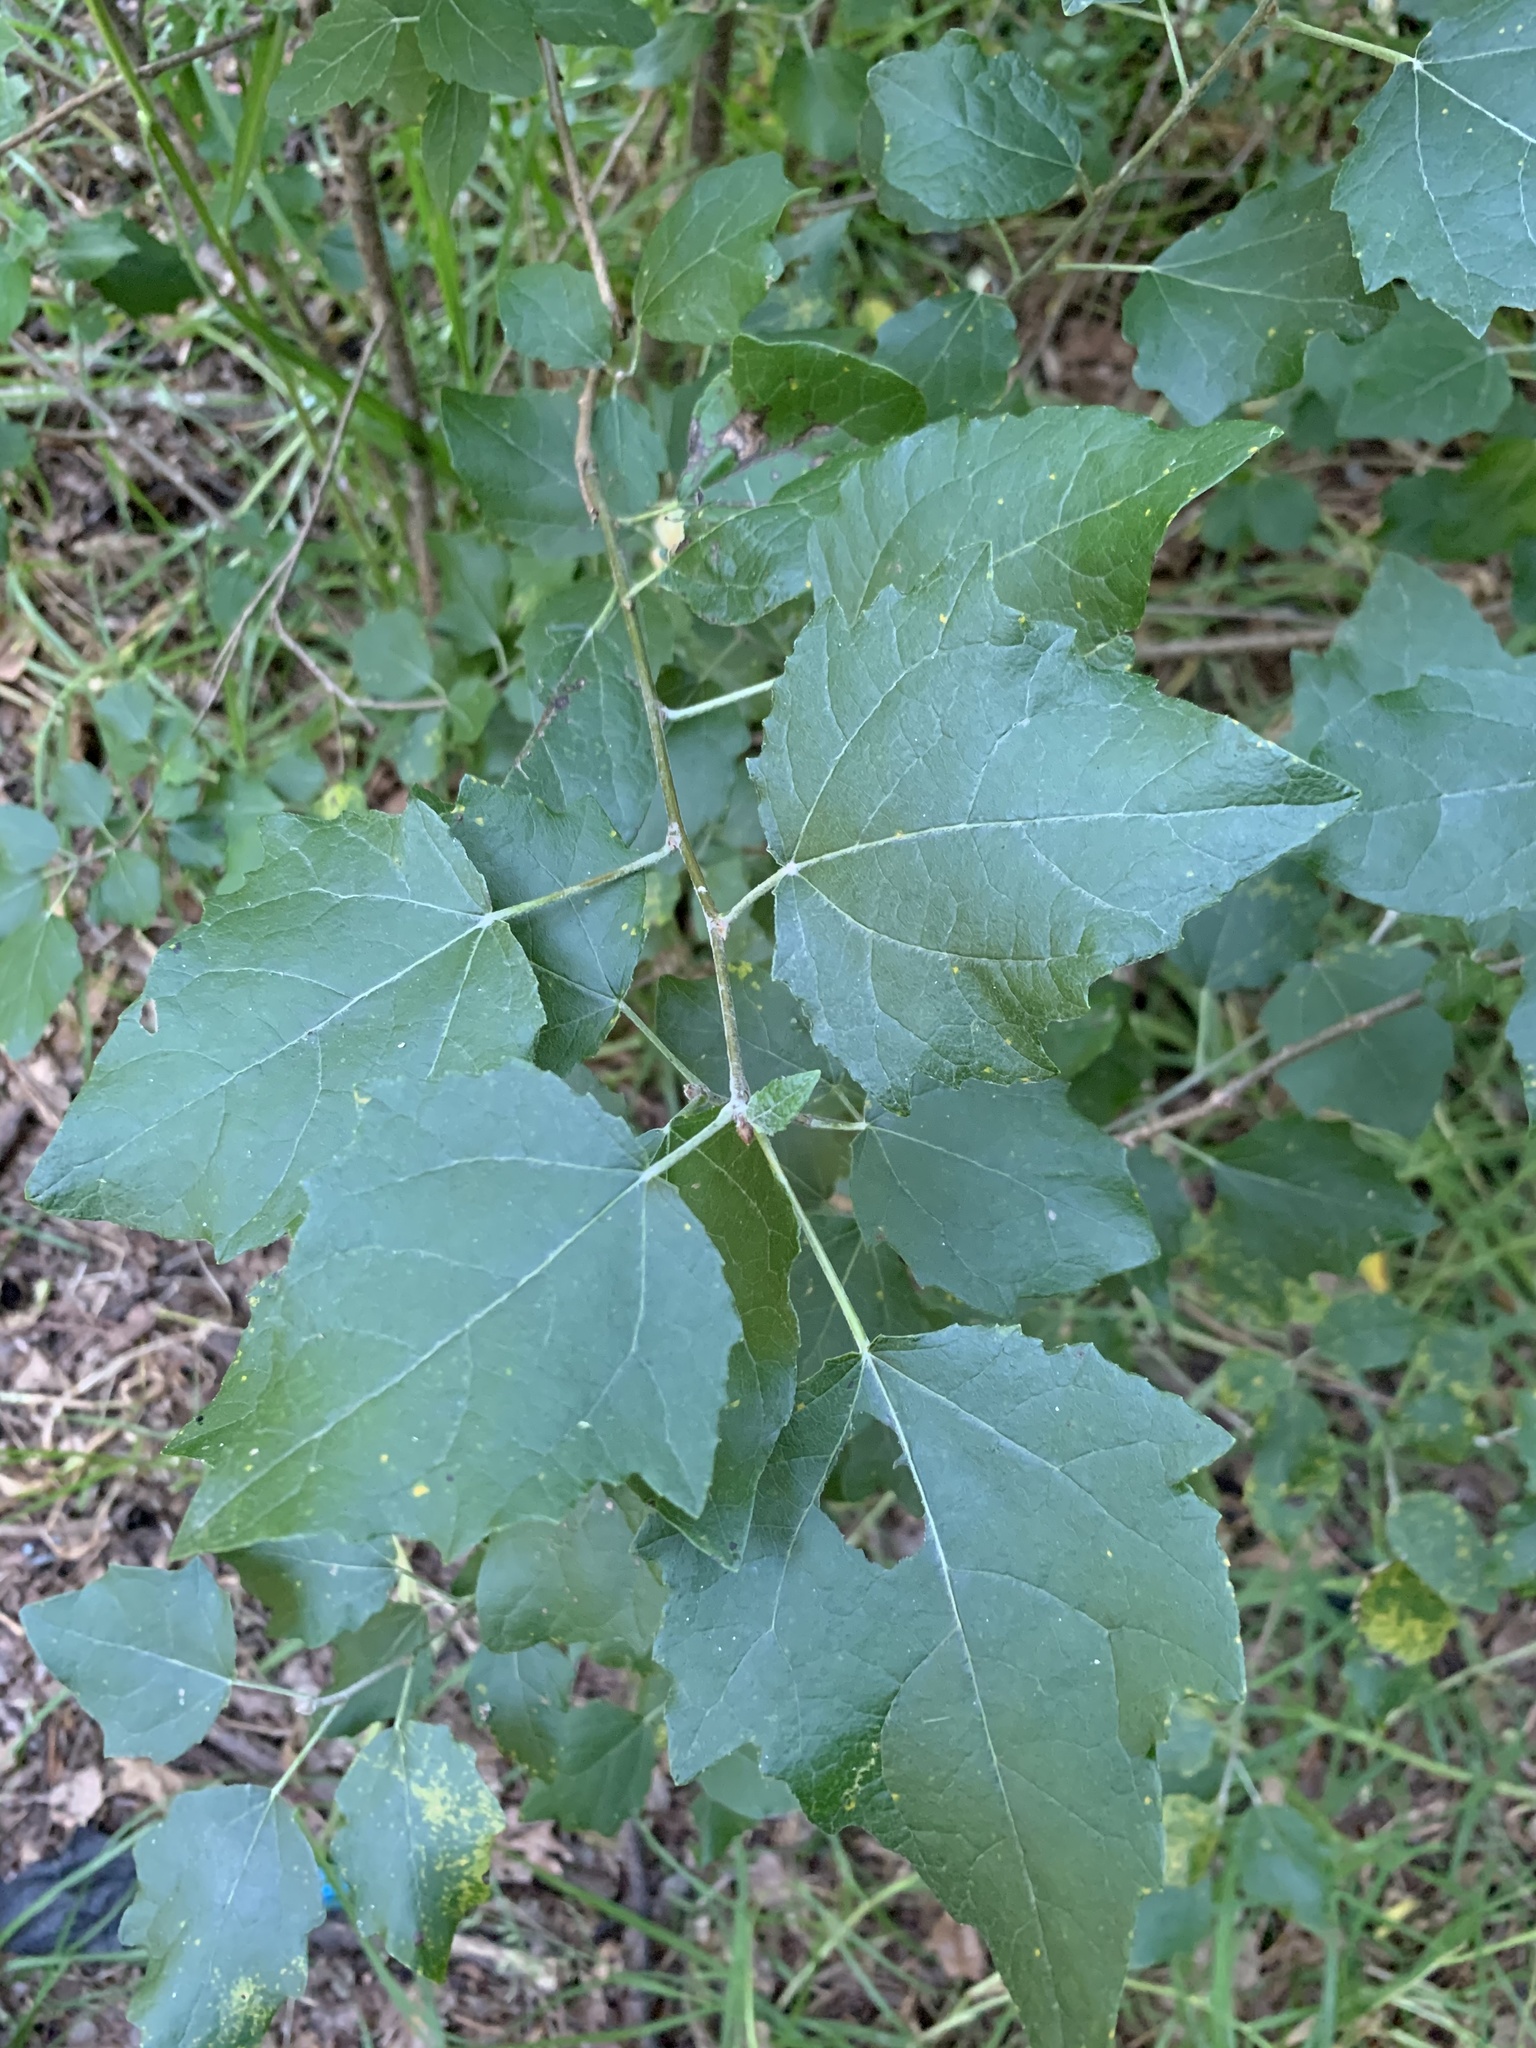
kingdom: Plantae
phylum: Tracheophyta
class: Magnoliopsida
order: Malpighiales
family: Salicaceae
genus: Populus
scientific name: Populus canescens
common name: Gray poplar
